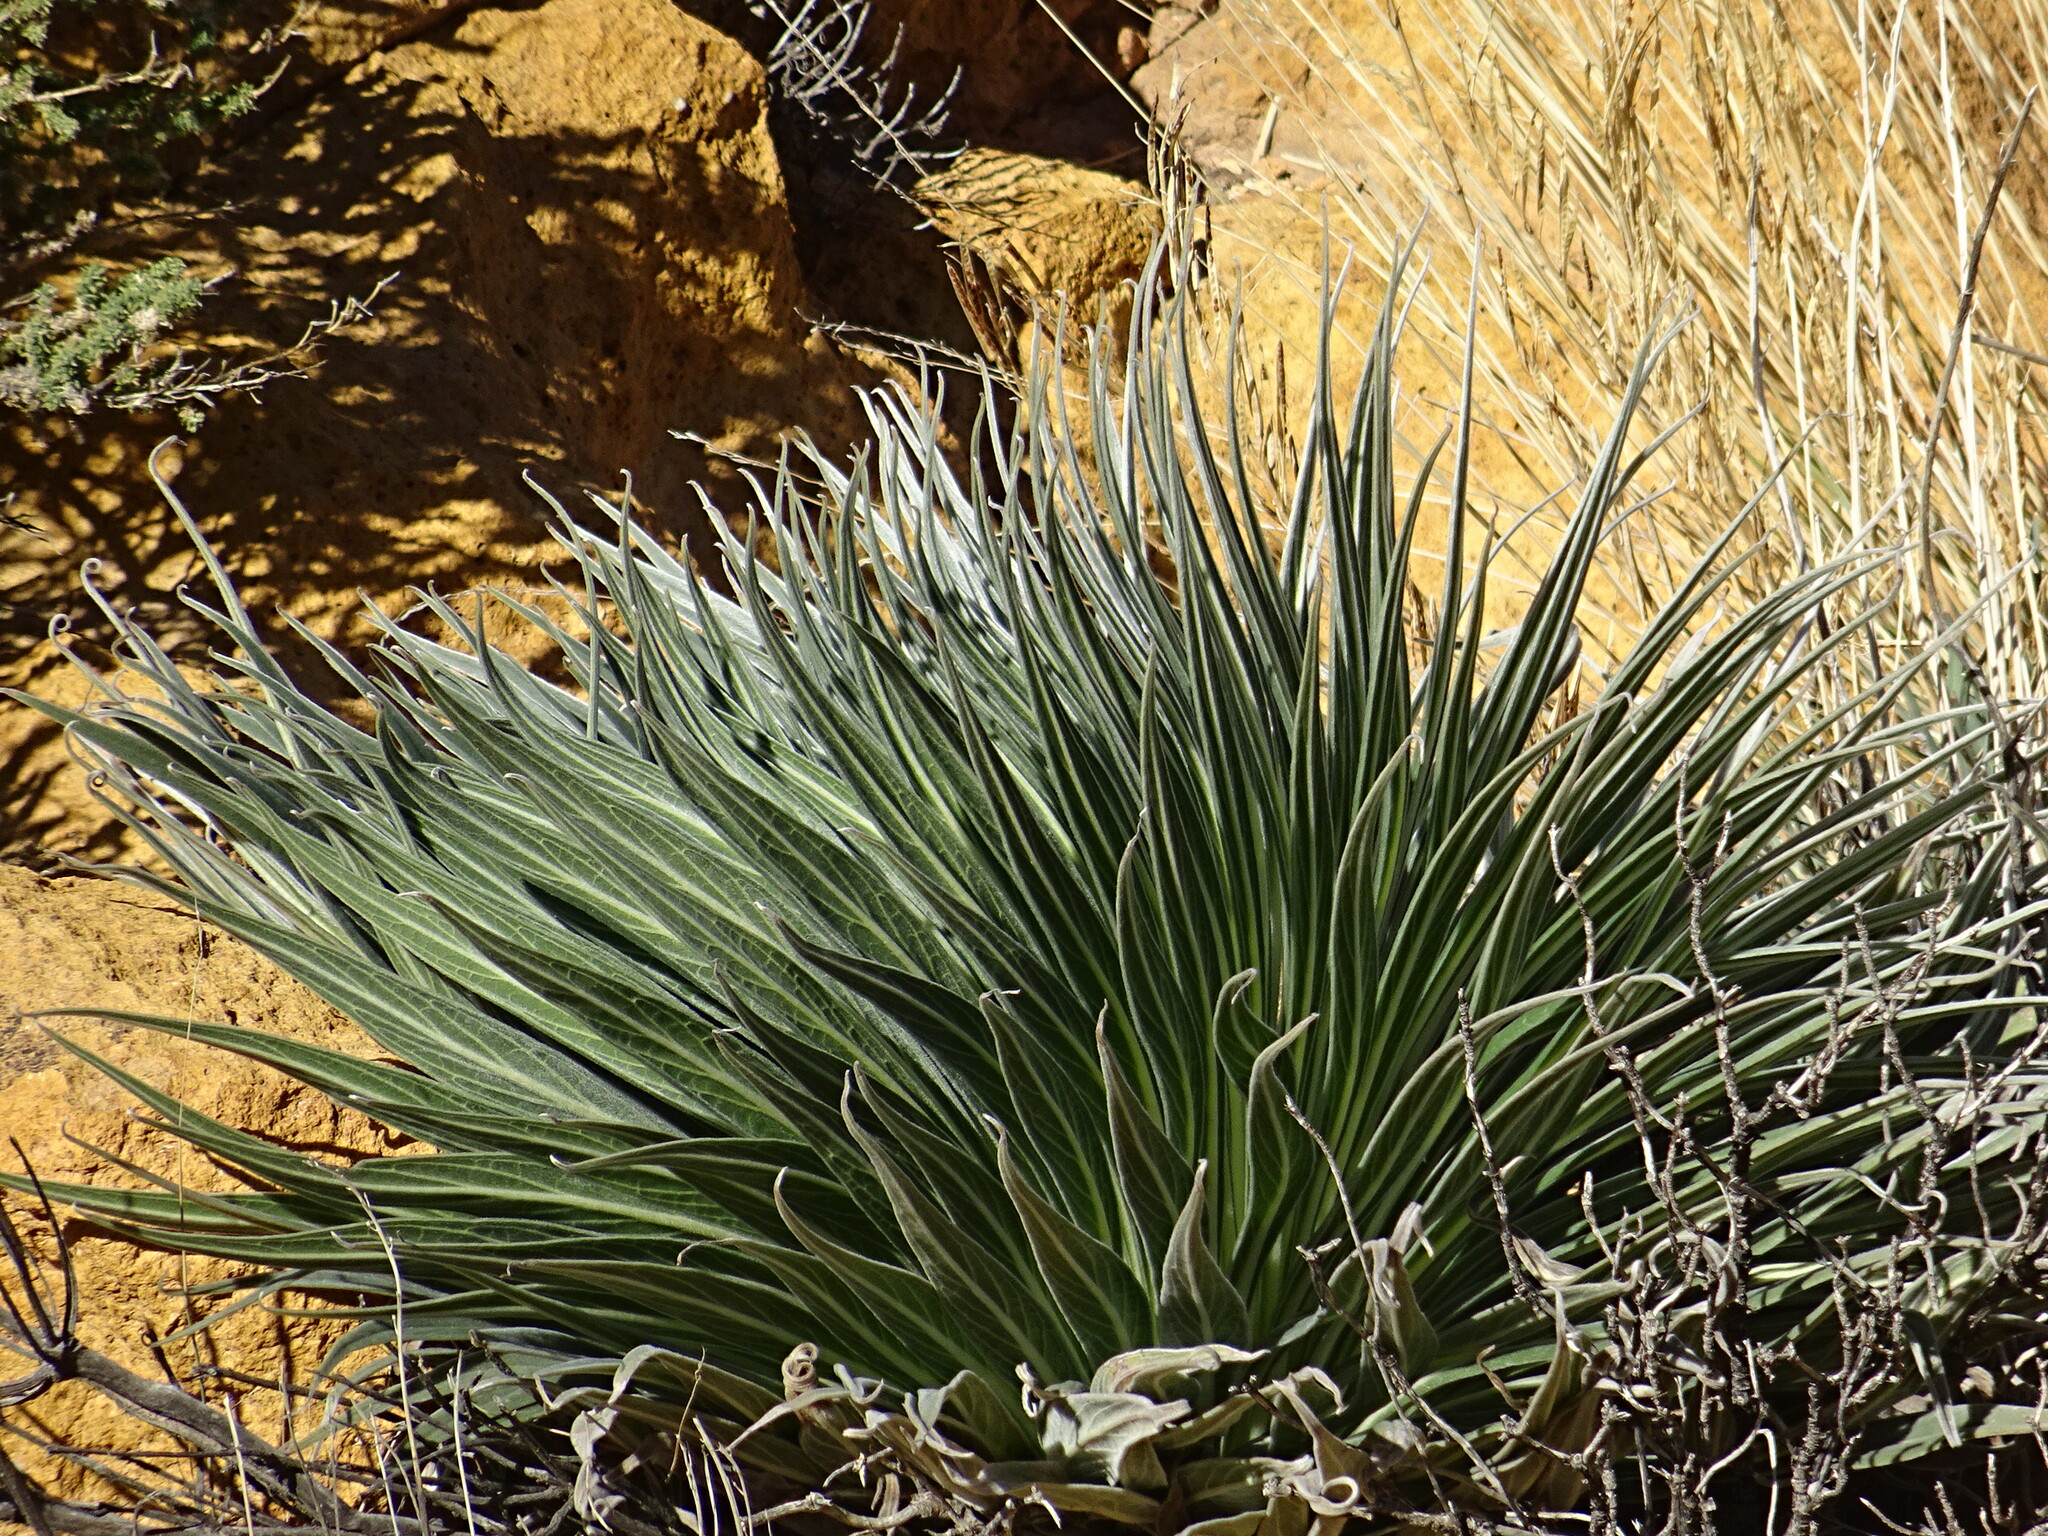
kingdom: Plantae
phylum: Tracheophyta
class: Magnoliopsida
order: Boraginales
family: Boraginaceae
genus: Echium
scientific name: Echium wildpretii
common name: Tower-of-jewels
